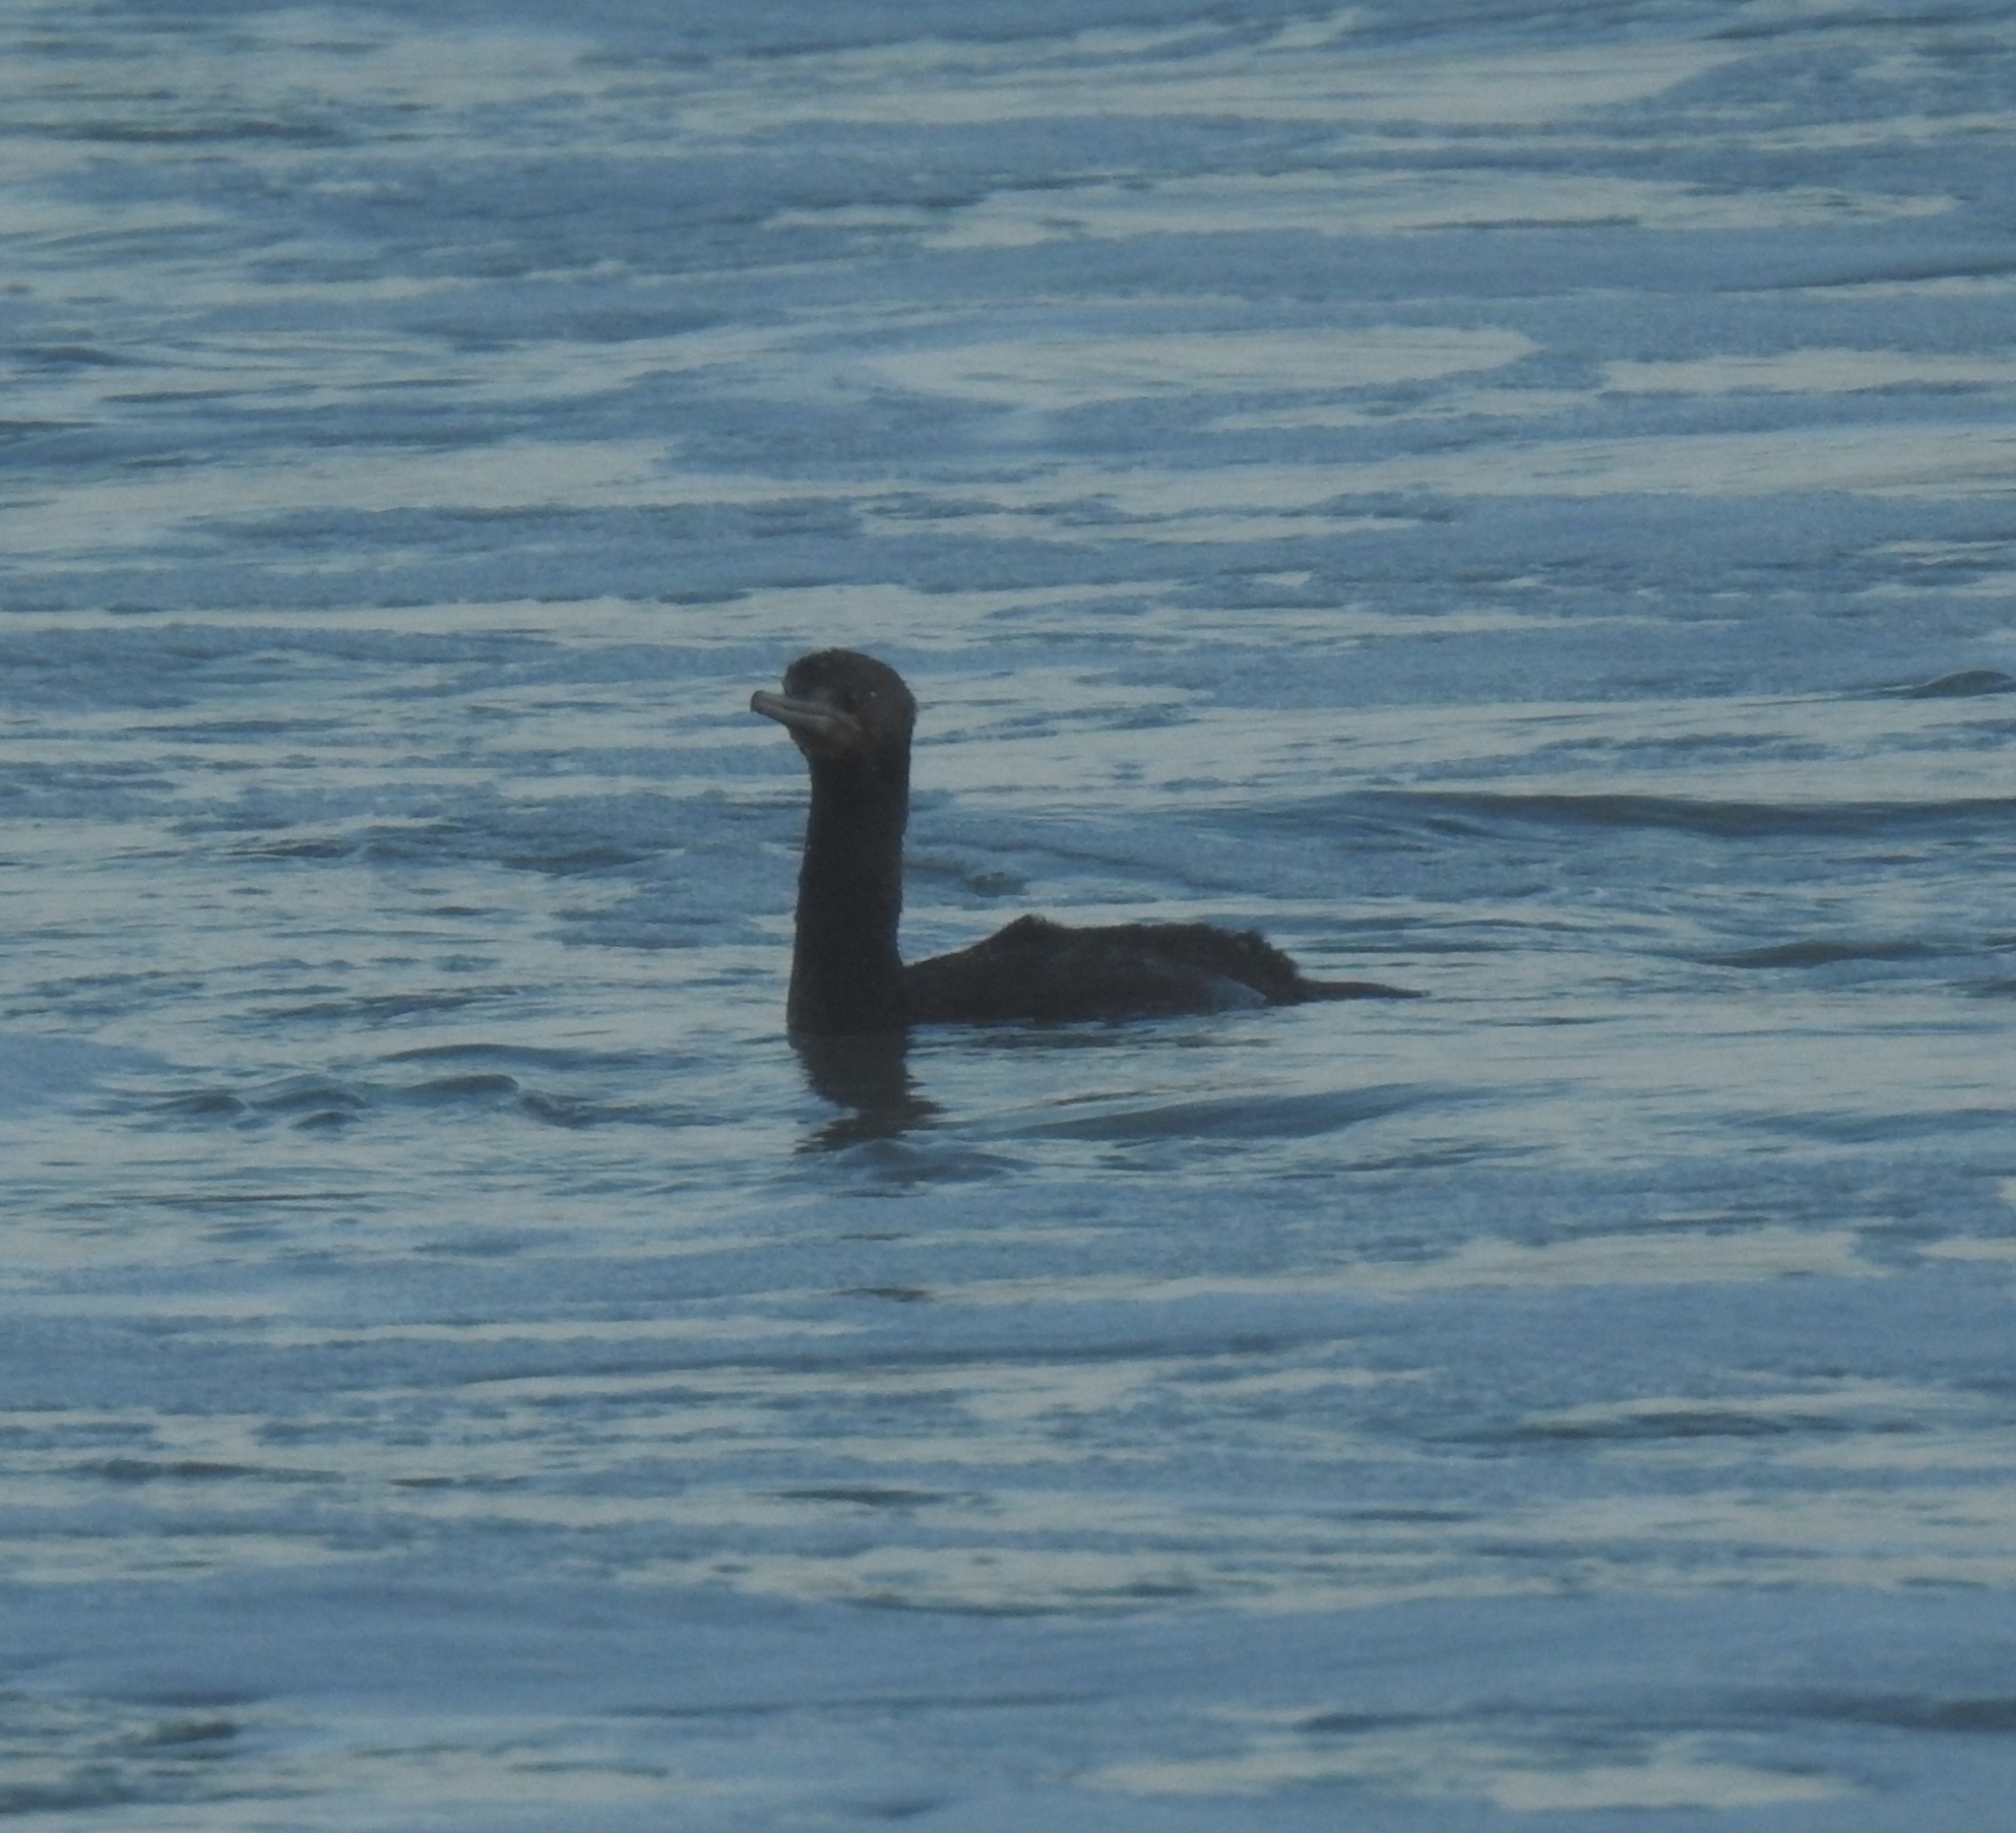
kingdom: Animalia
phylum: Chordata
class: Aves
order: Suliformes
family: Phalacrocoracidae
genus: Phalacrocorax
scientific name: Phalacrocorax capensis
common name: Cape cormorant
